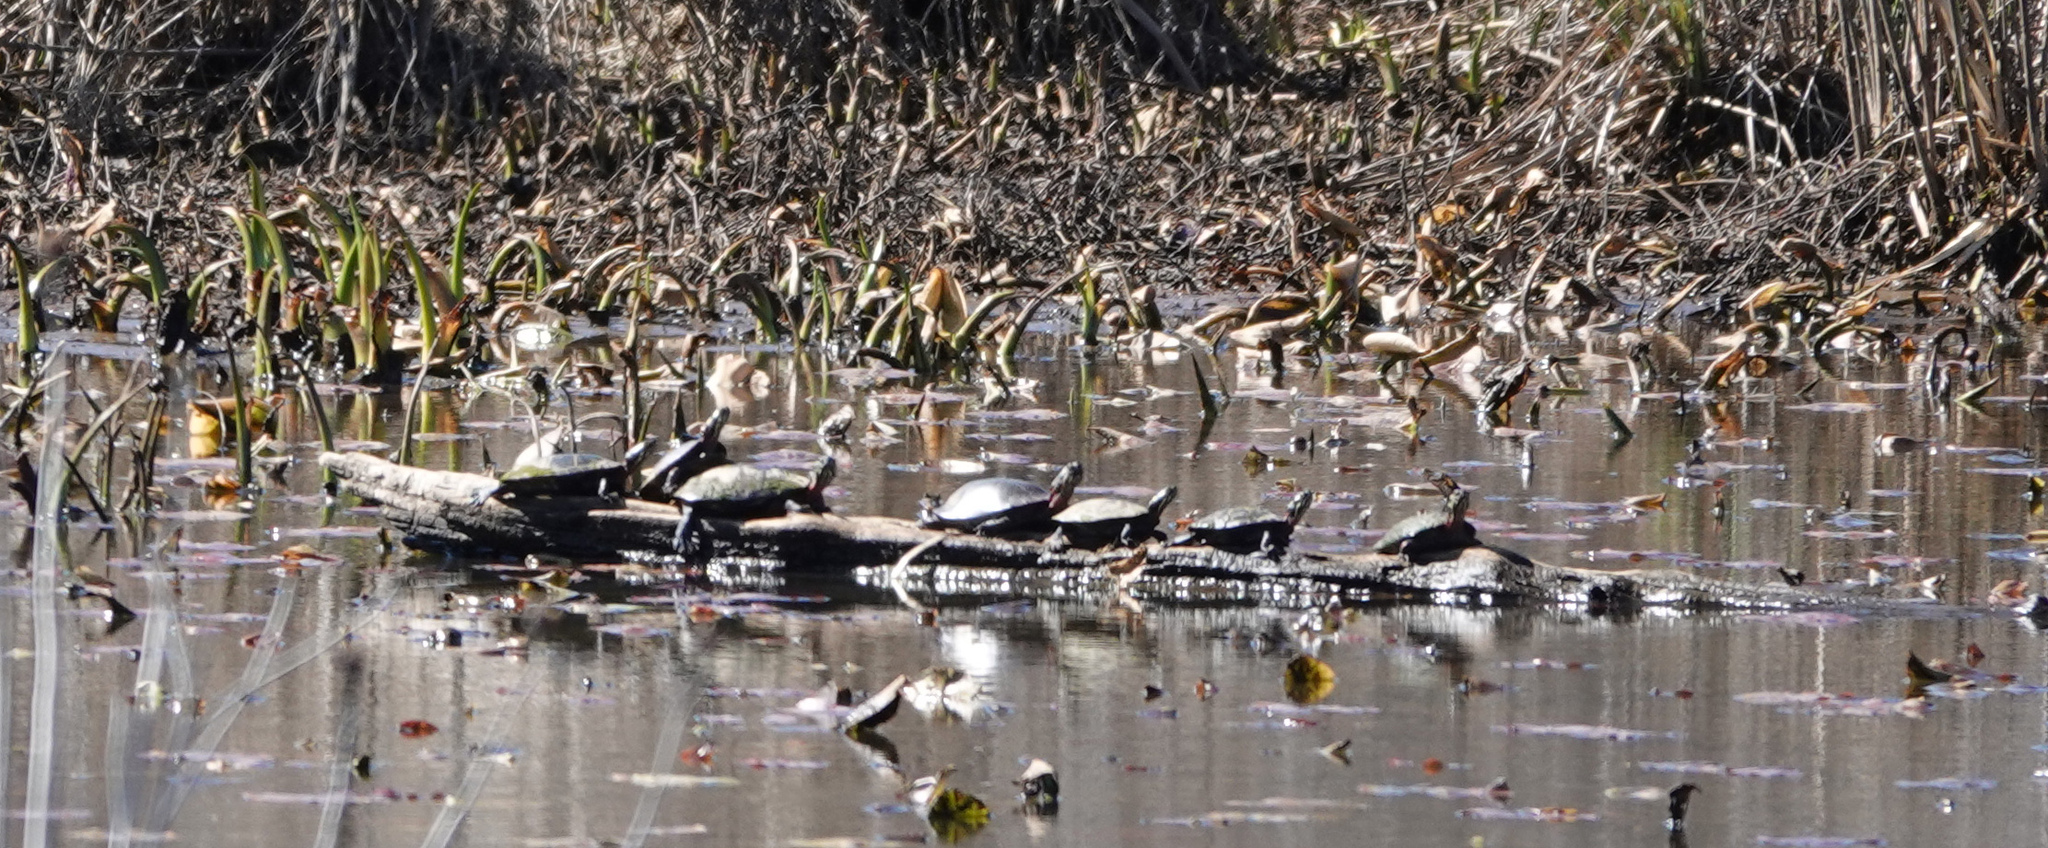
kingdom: Animalia
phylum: Chordata
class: Testudines
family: Emydidae
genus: Chrysemys
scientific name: Chrysemys picta
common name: Painted turtle
